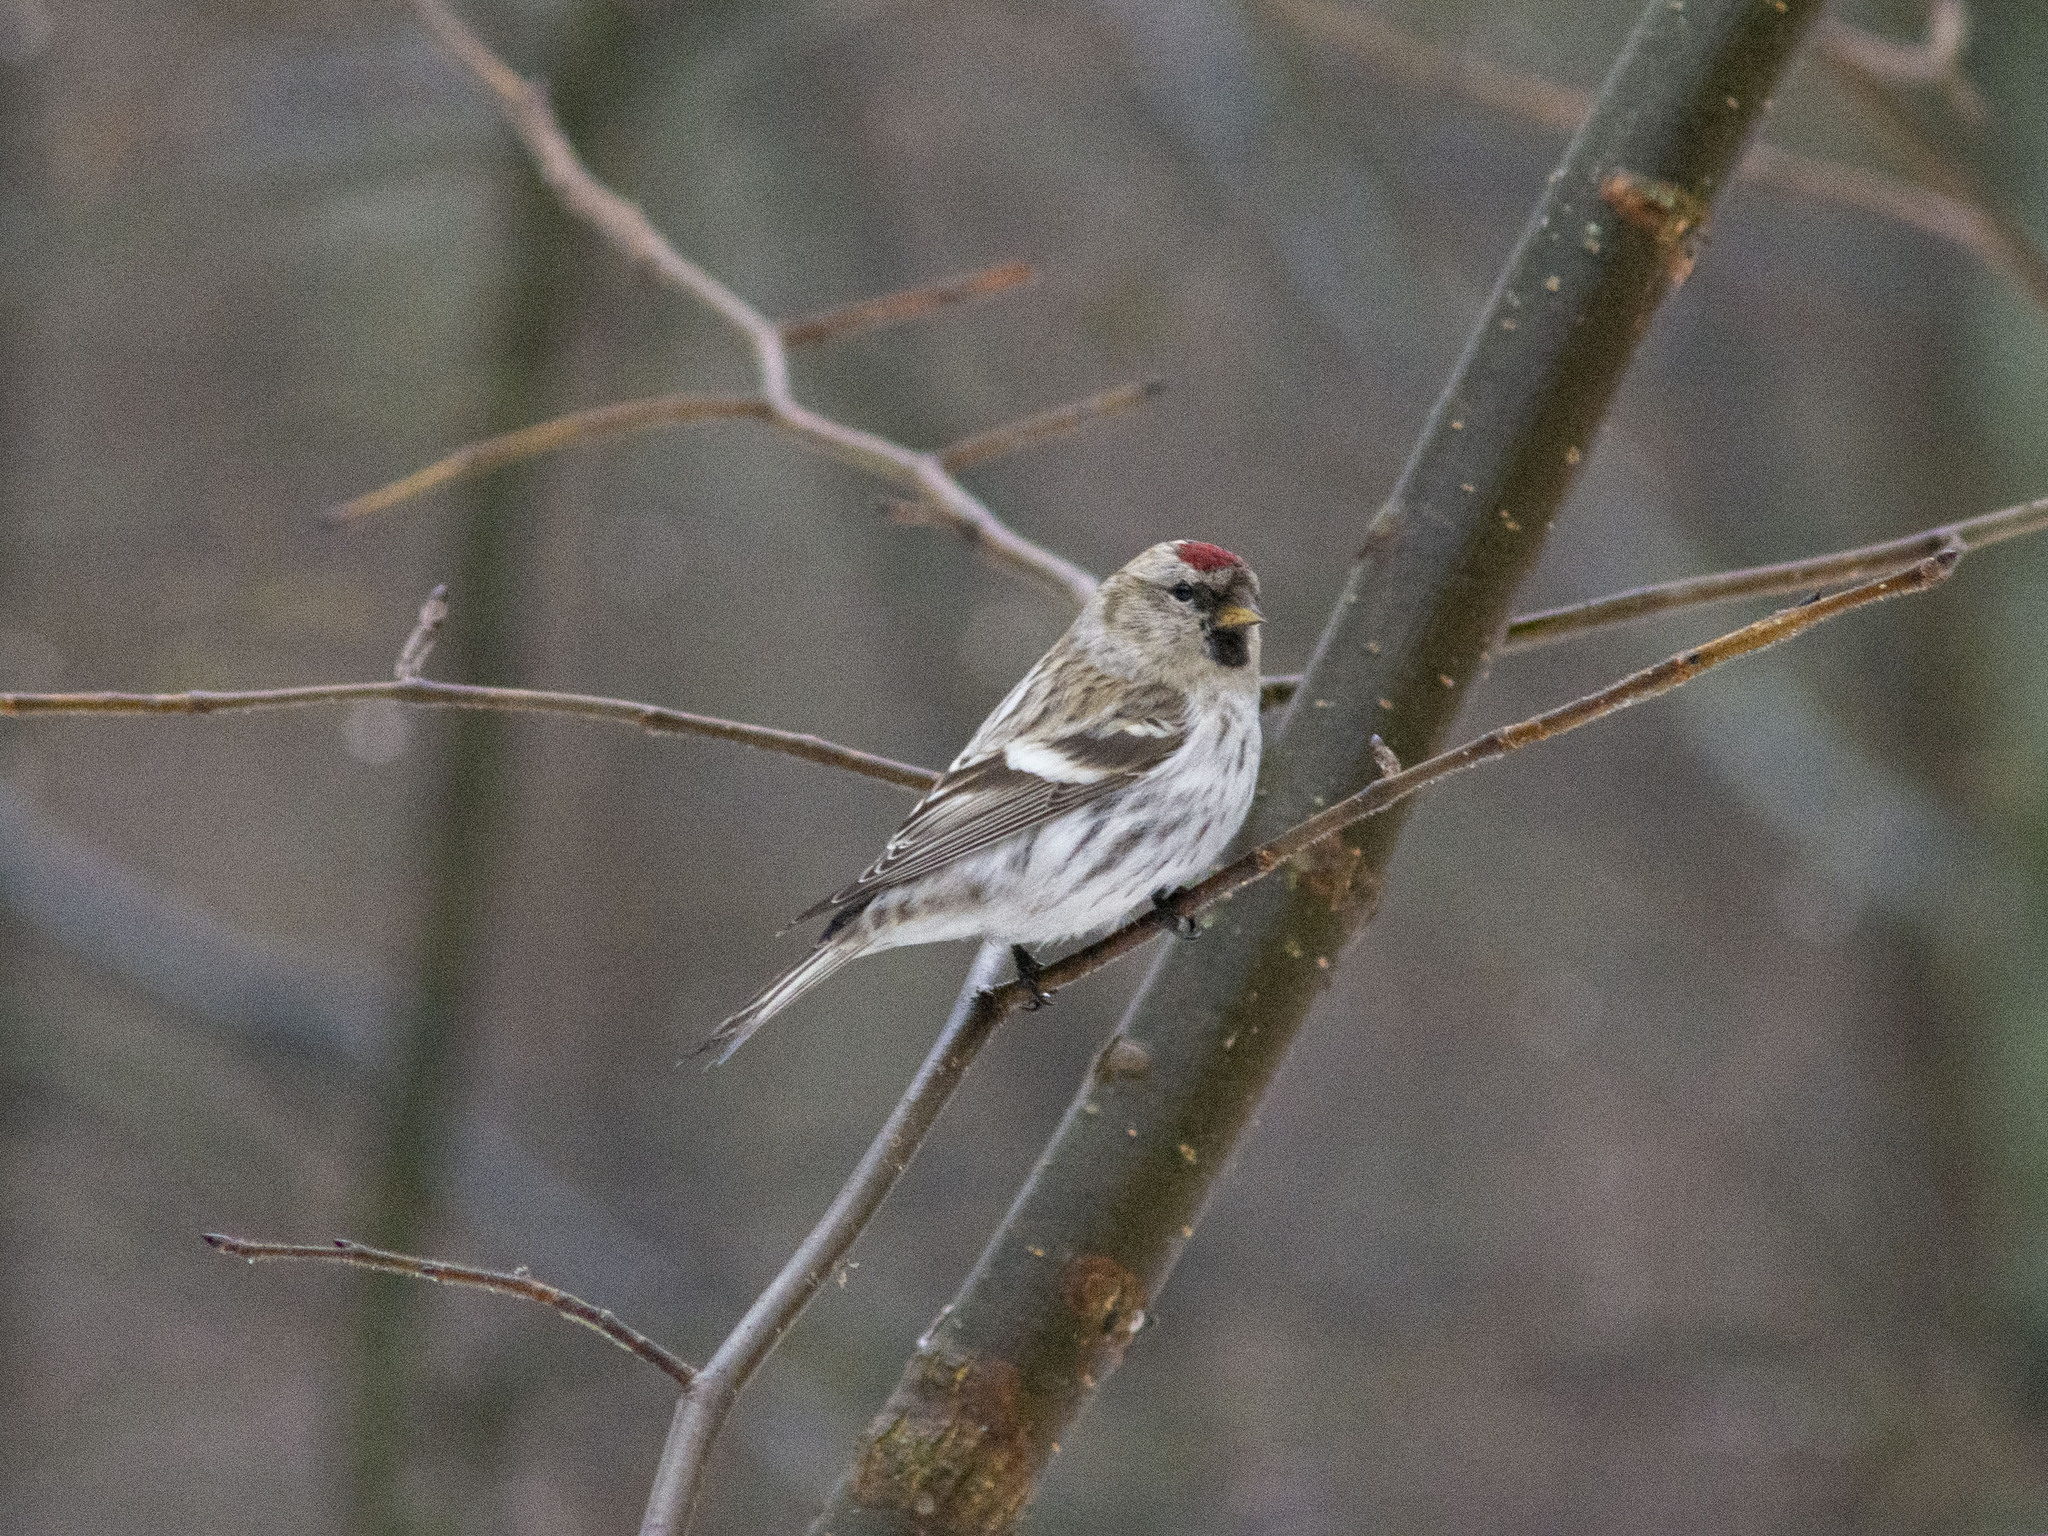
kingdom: Animalia
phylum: Chordata
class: Aves
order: Passeriformes
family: Fringillidae
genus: Acanthis
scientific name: Acanthis flammea
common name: Common redpoll
